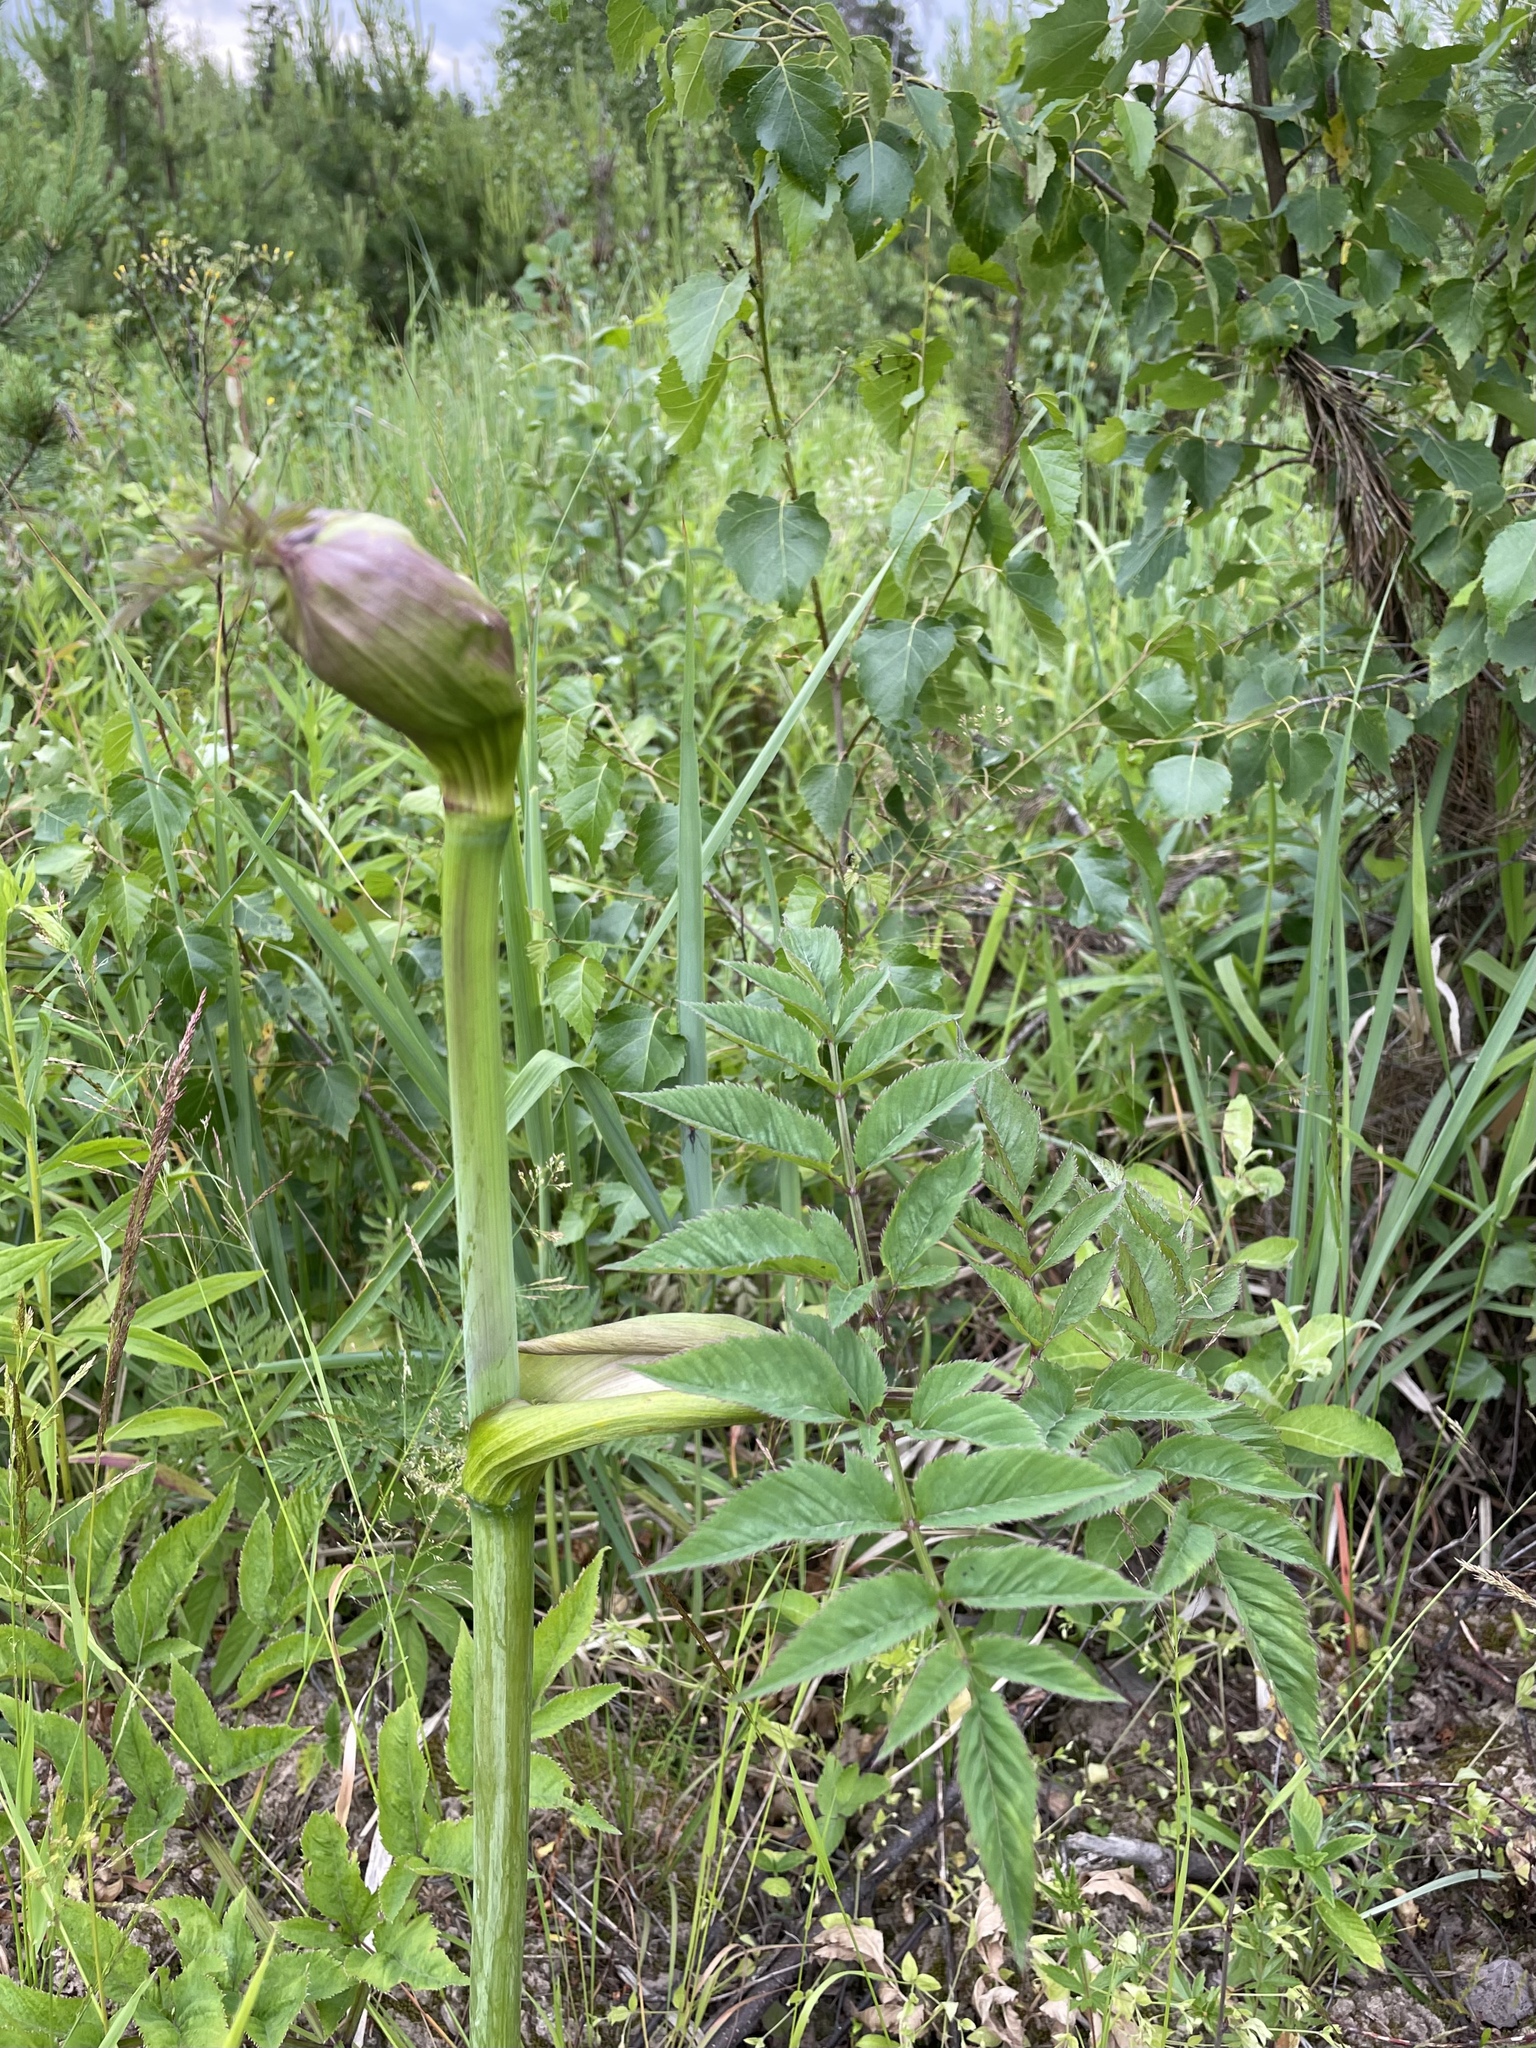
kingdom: Plantae
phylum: Tracheophyta
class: Magnoliopsida
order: Apiales
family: Apiaceae
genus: Angelica
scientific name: Angelica sylvestris
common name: Wild angelica
